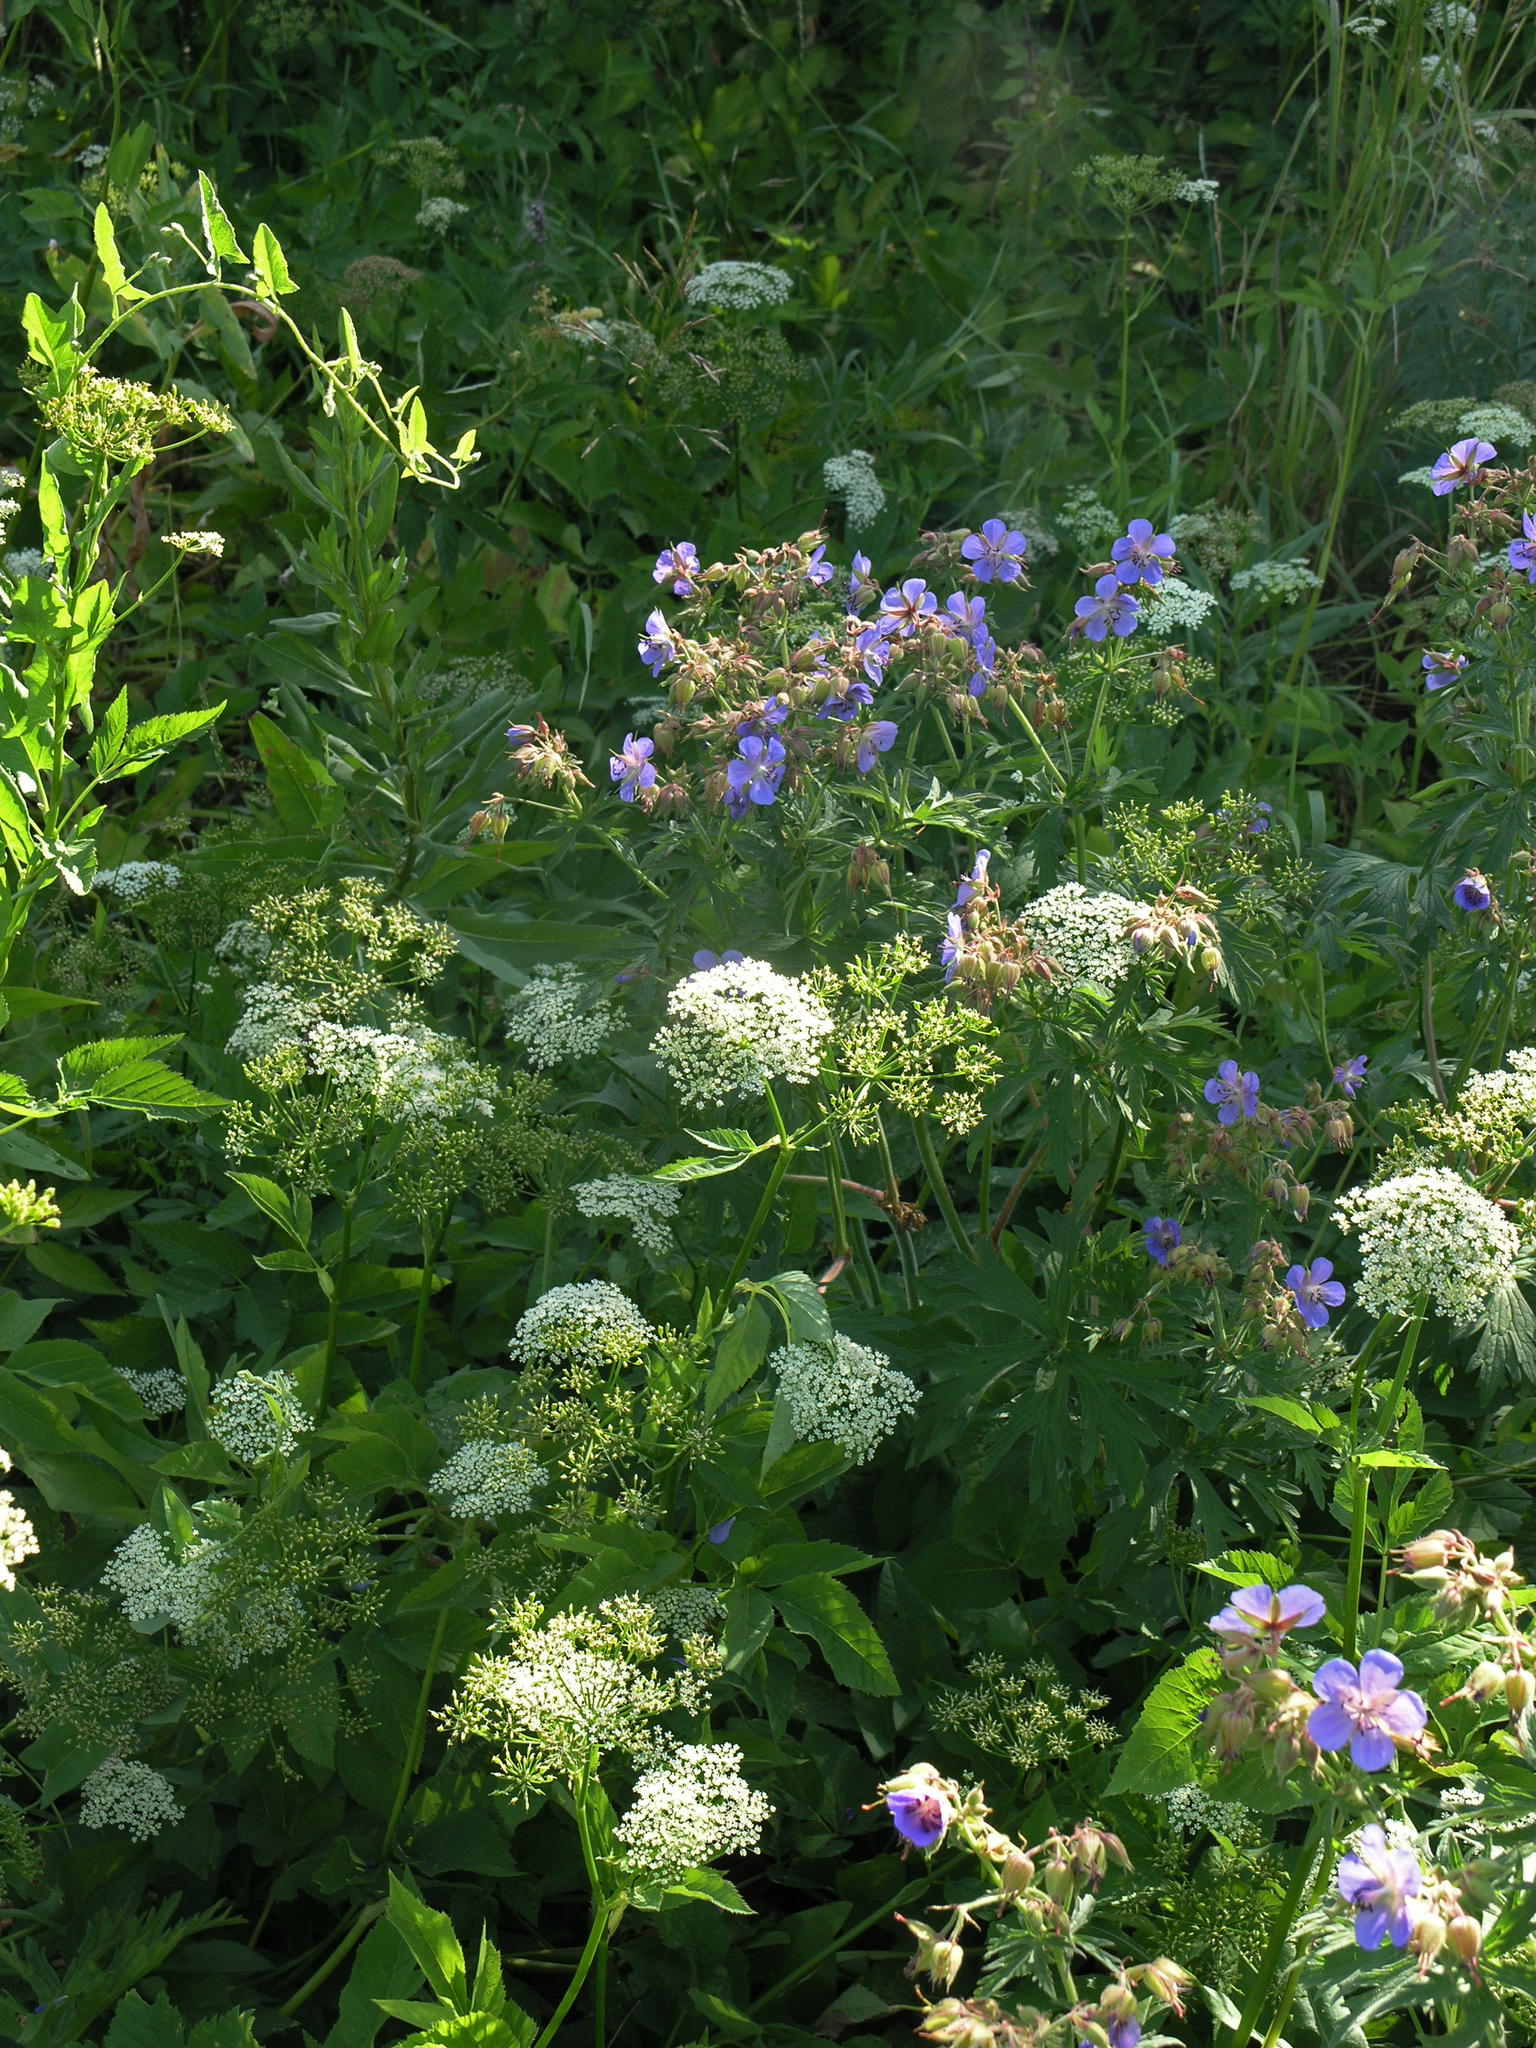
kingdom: Plantae
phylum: Tracheophyta
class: Magnoliopsida
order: Apiales
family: Apiaceae
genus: Aegopodium
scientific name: Aegopodium podagraria
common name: Ground-elder
